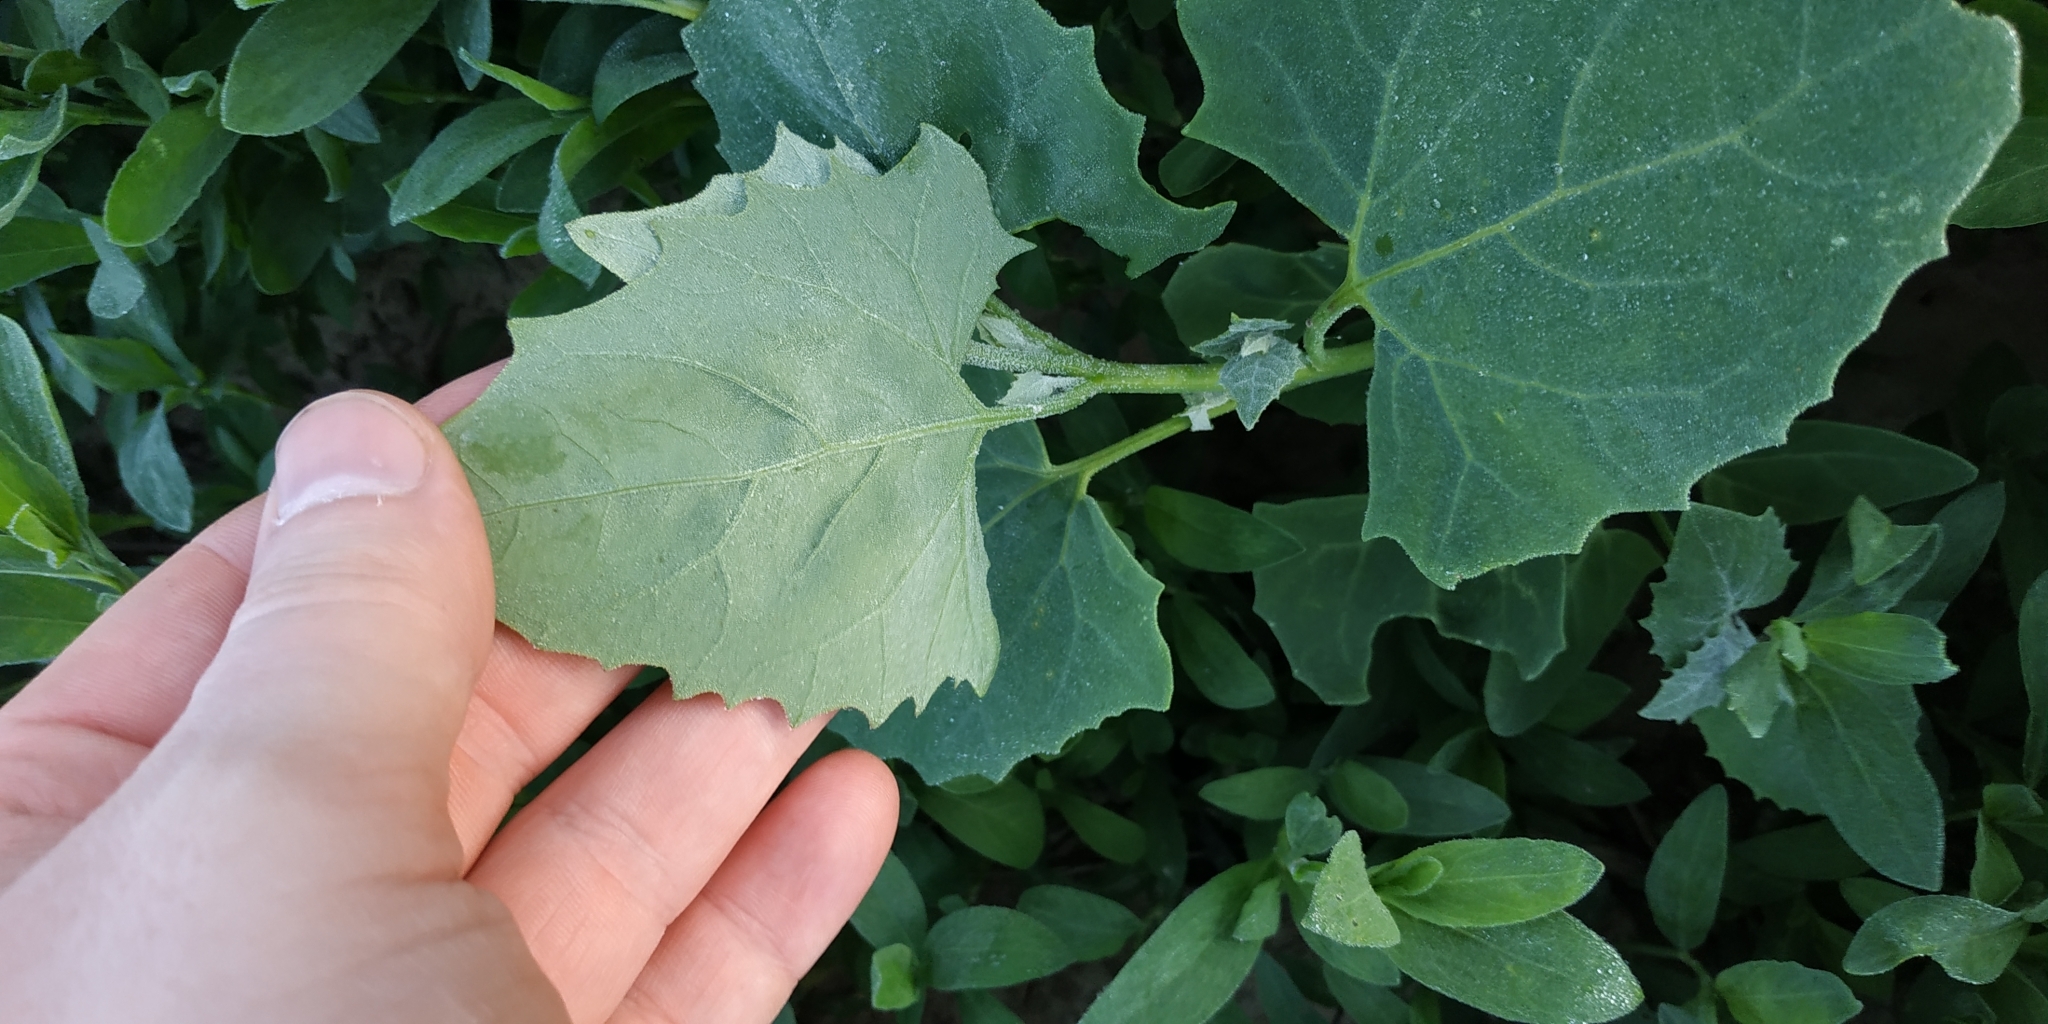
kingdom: Plantae
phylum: Tracheophyta
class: Magnoliopsida
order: Caryophyllales
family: Amaranthaceae
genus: Atriplex
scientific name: Atriplex sagittata
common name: Purple orache
